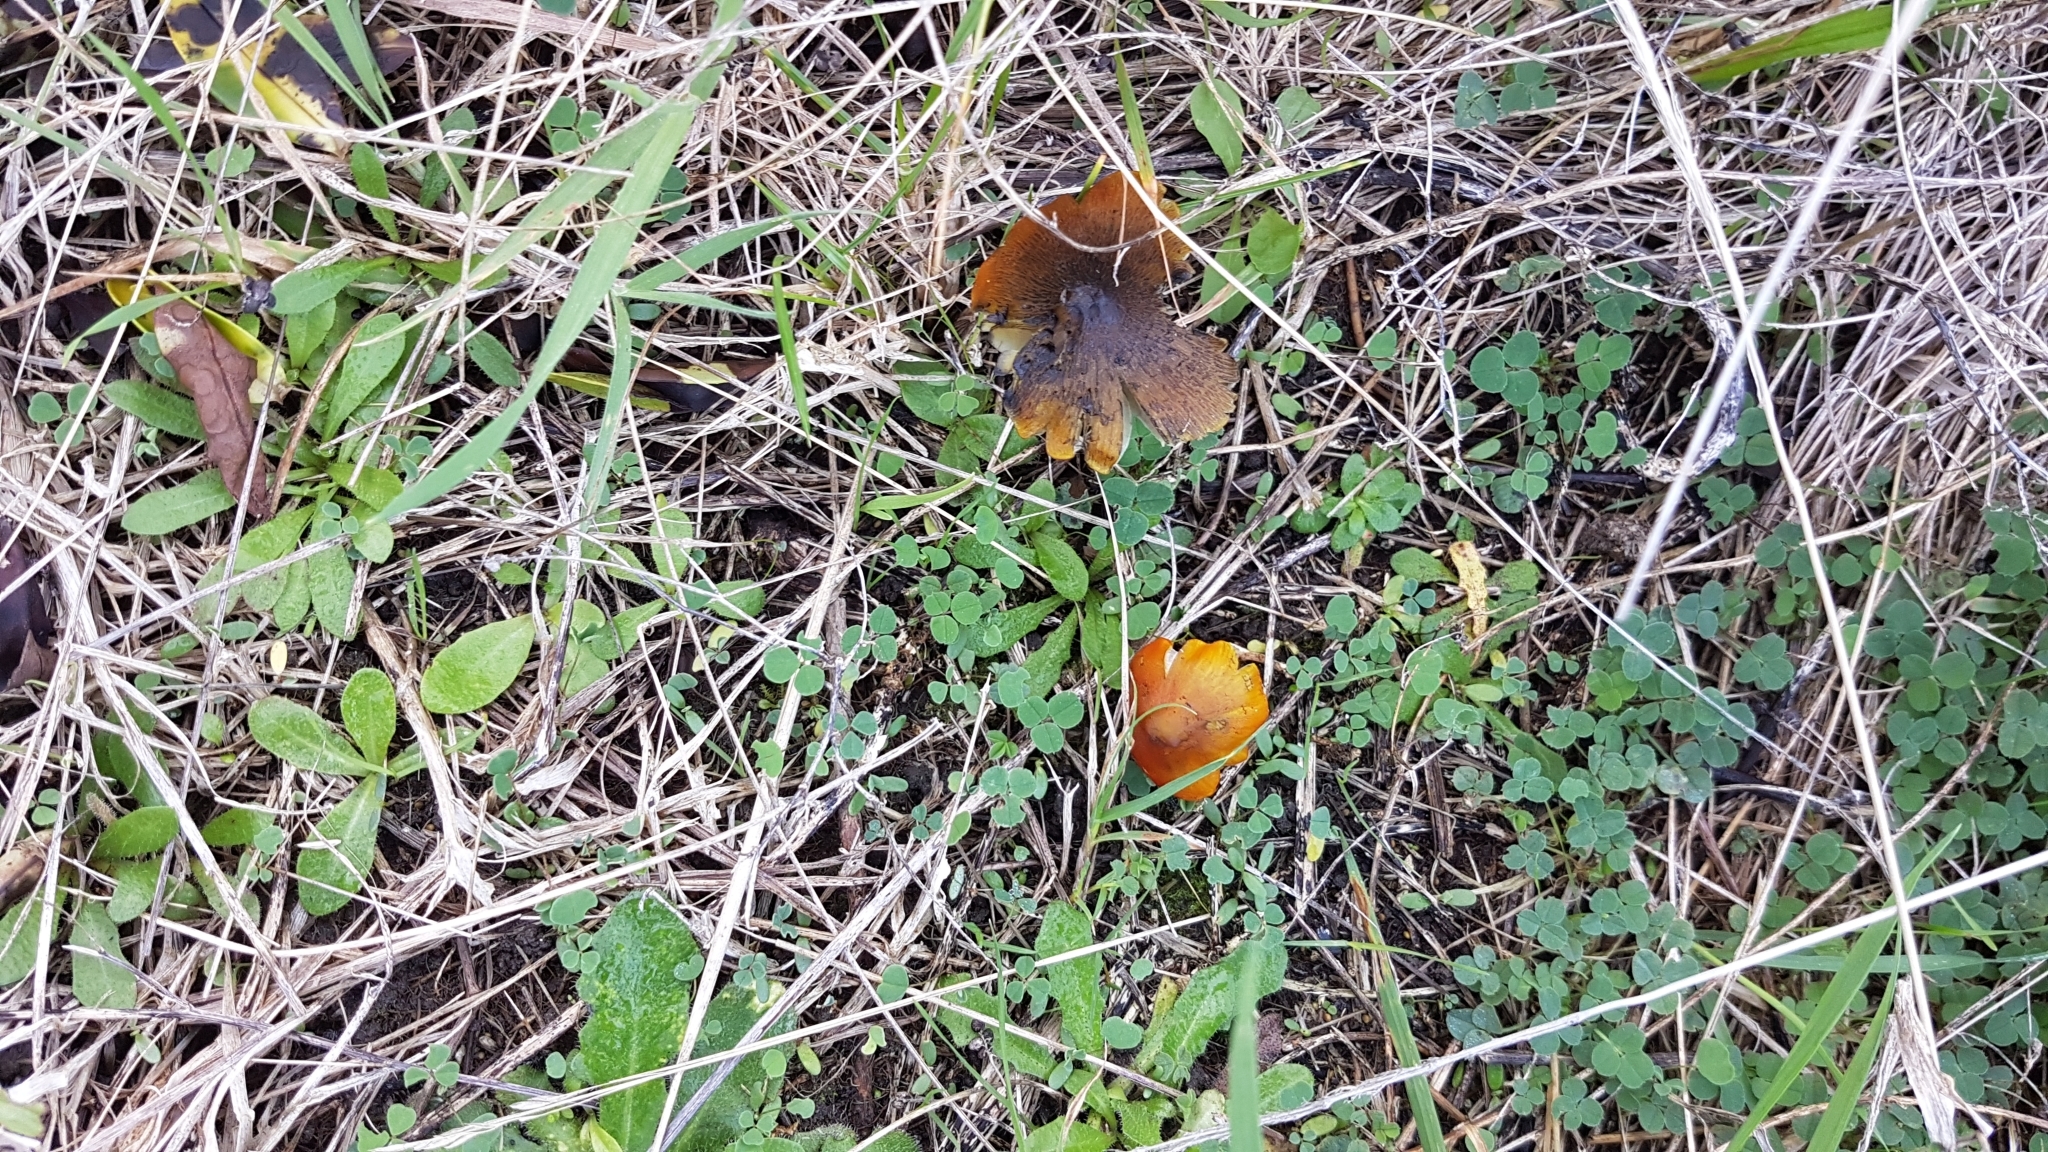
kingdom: Fungi
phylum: Basidiomycota
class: Agaricomycetes
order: Agaricales
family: Hygrophoraceae
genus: Hygrocybe
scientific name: Hygrocybe conica
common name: Blackening wax-cap
